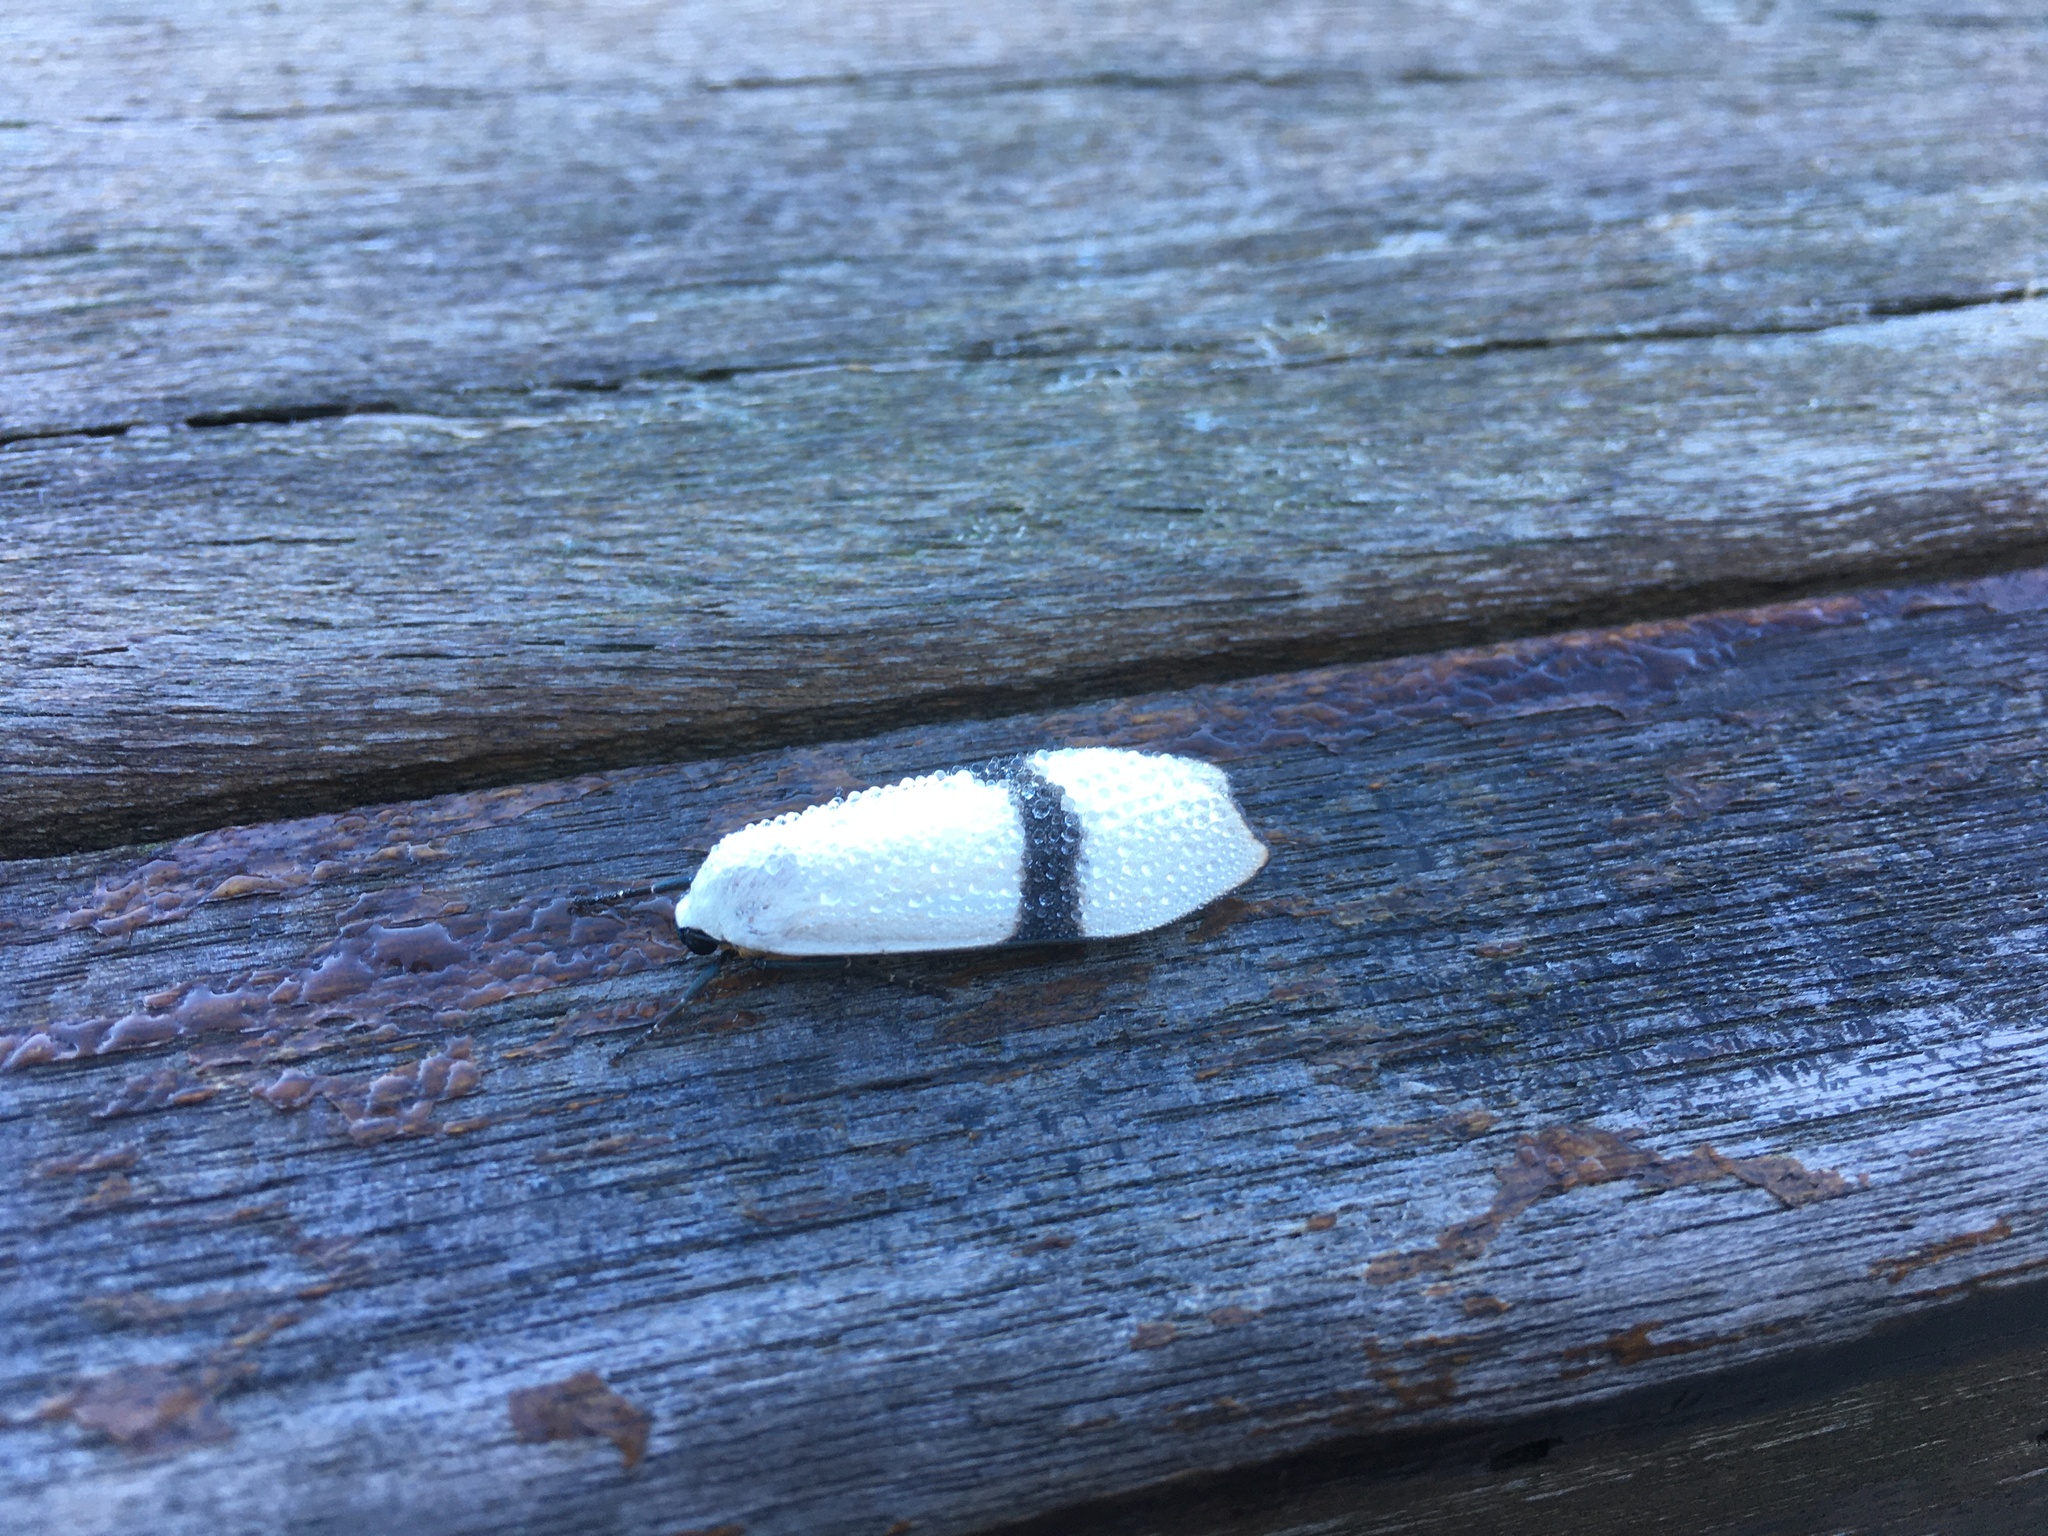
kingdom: Animalia
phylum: Arthropoda
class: Insecta
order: Lepidoptera
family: Erebidae
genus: Vamuna
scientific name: Vamuna alboluteola
